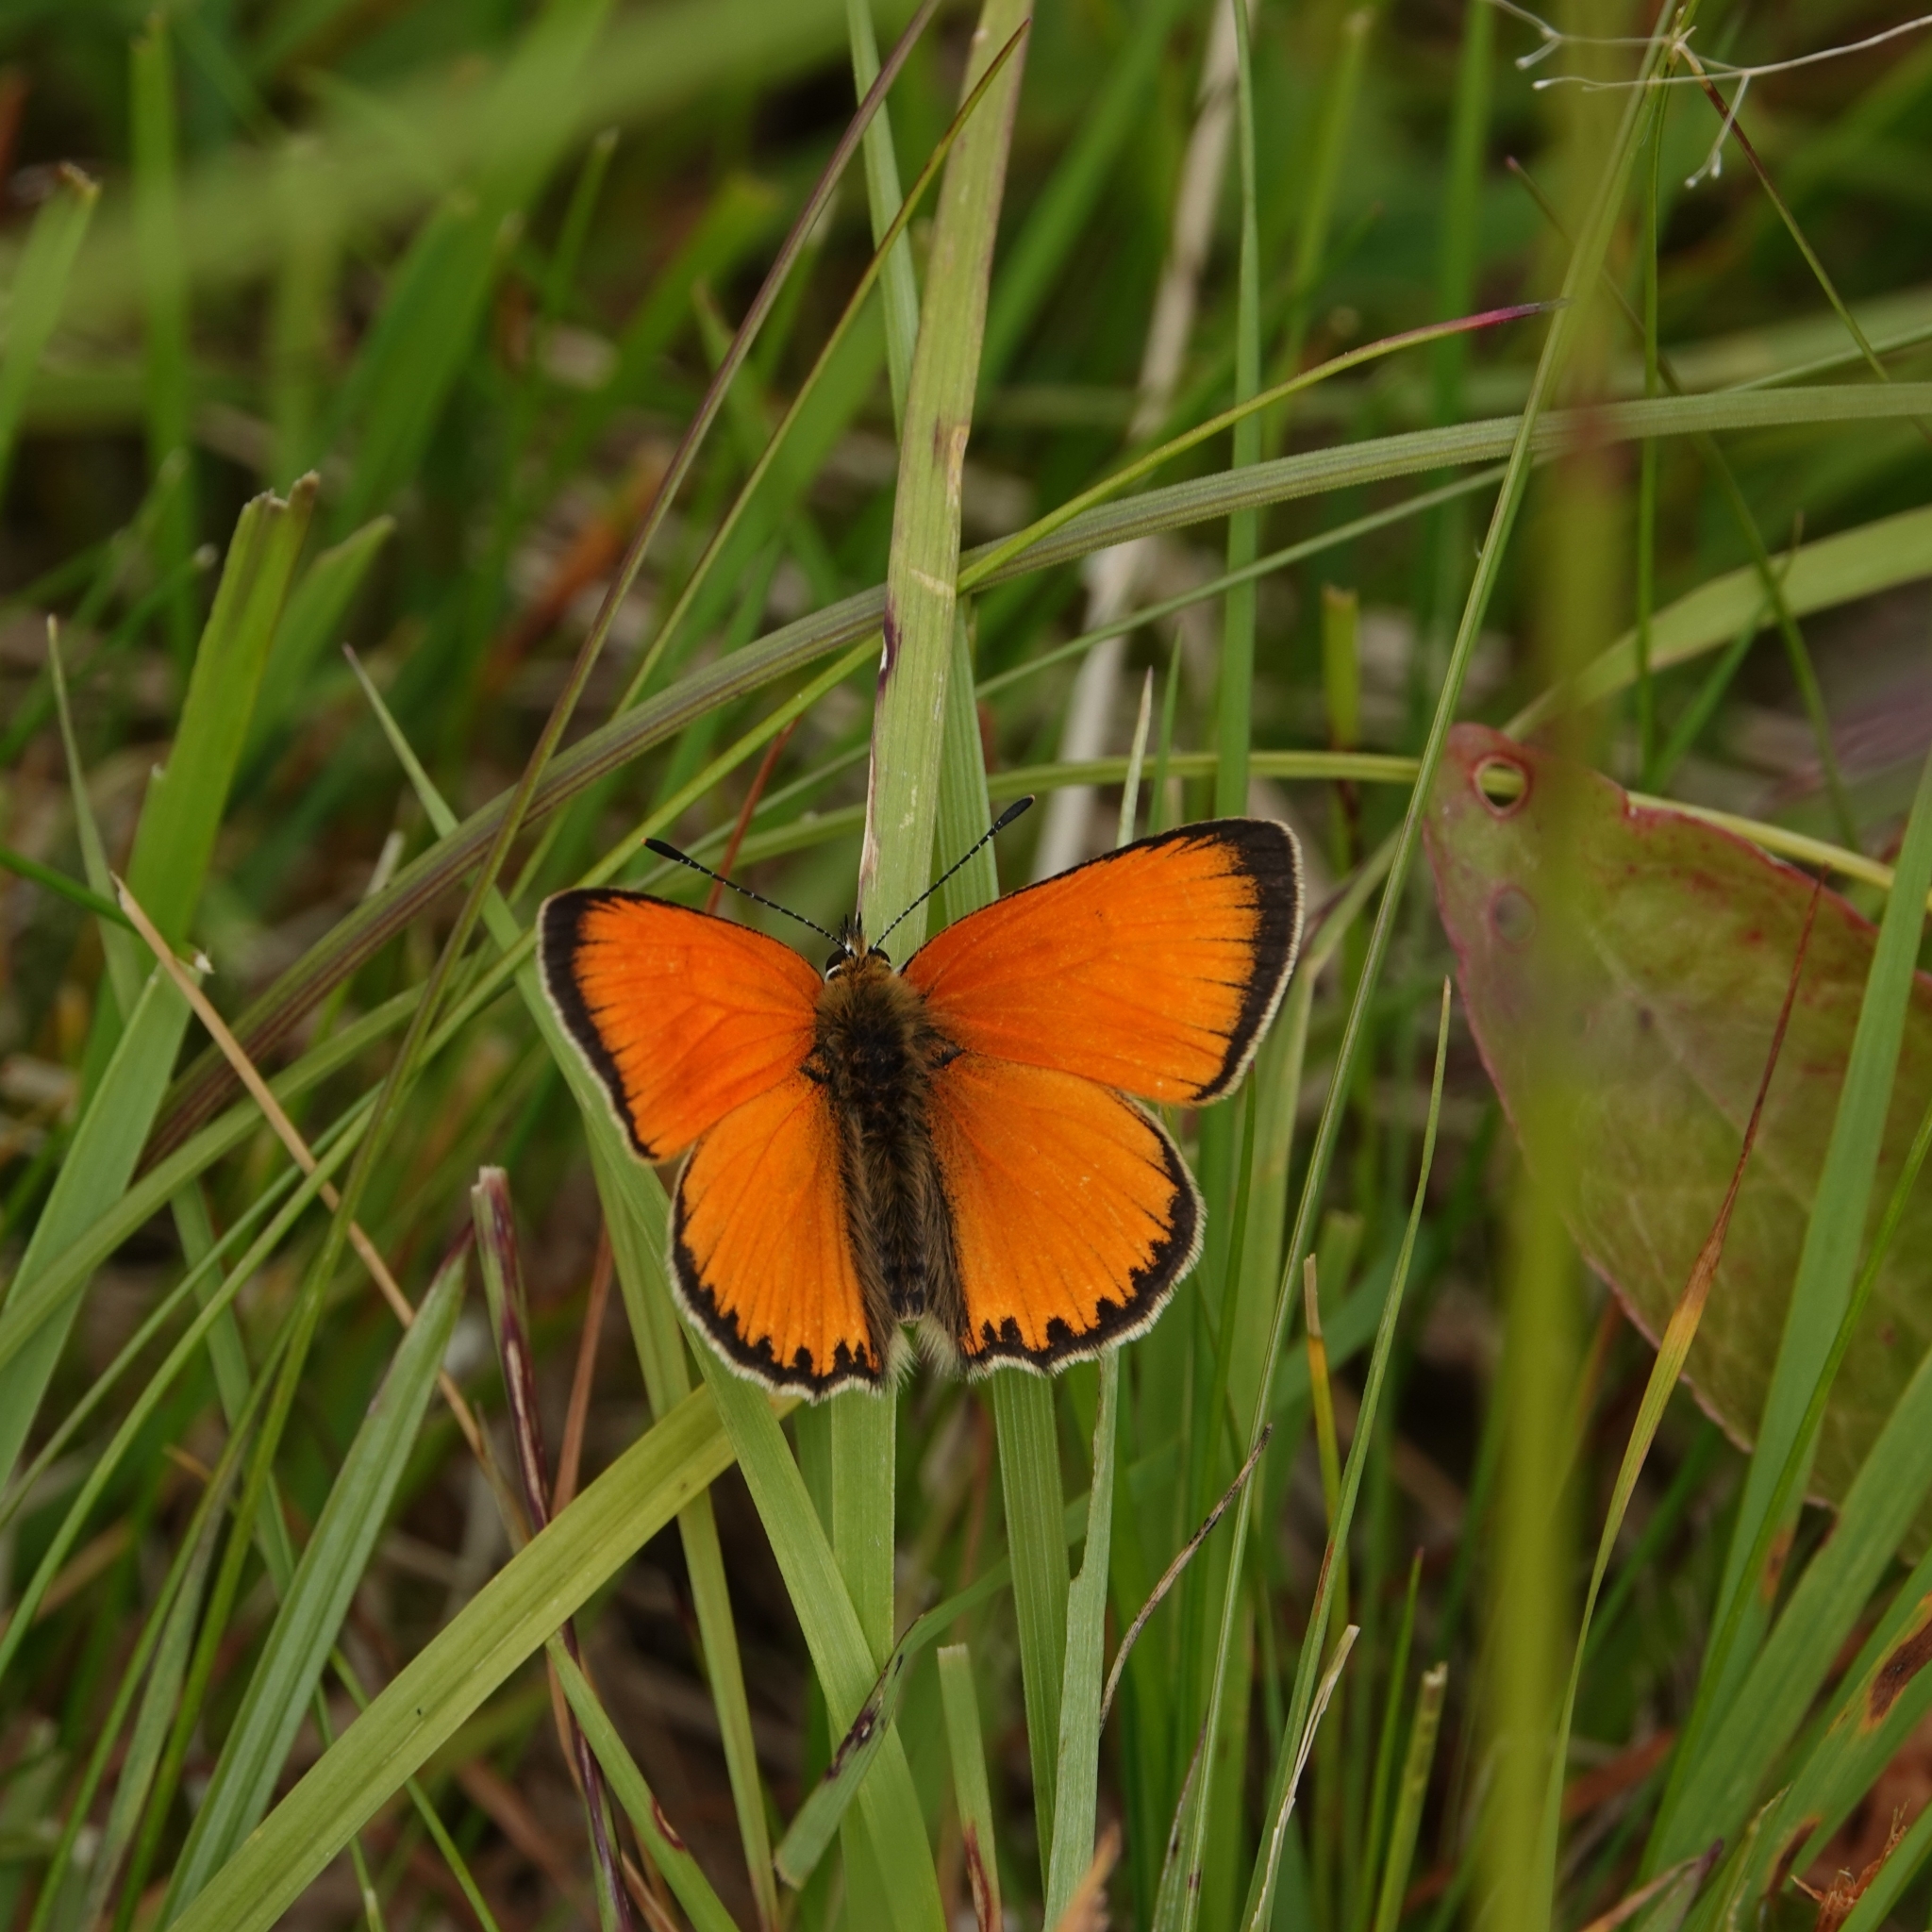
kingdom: Animalia
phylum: Arthropoda
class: Insecta
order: Lepidoptera
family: Lycaenidae
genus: Lycaena
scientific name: Lycaena virgaureae
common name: Scarce copper
